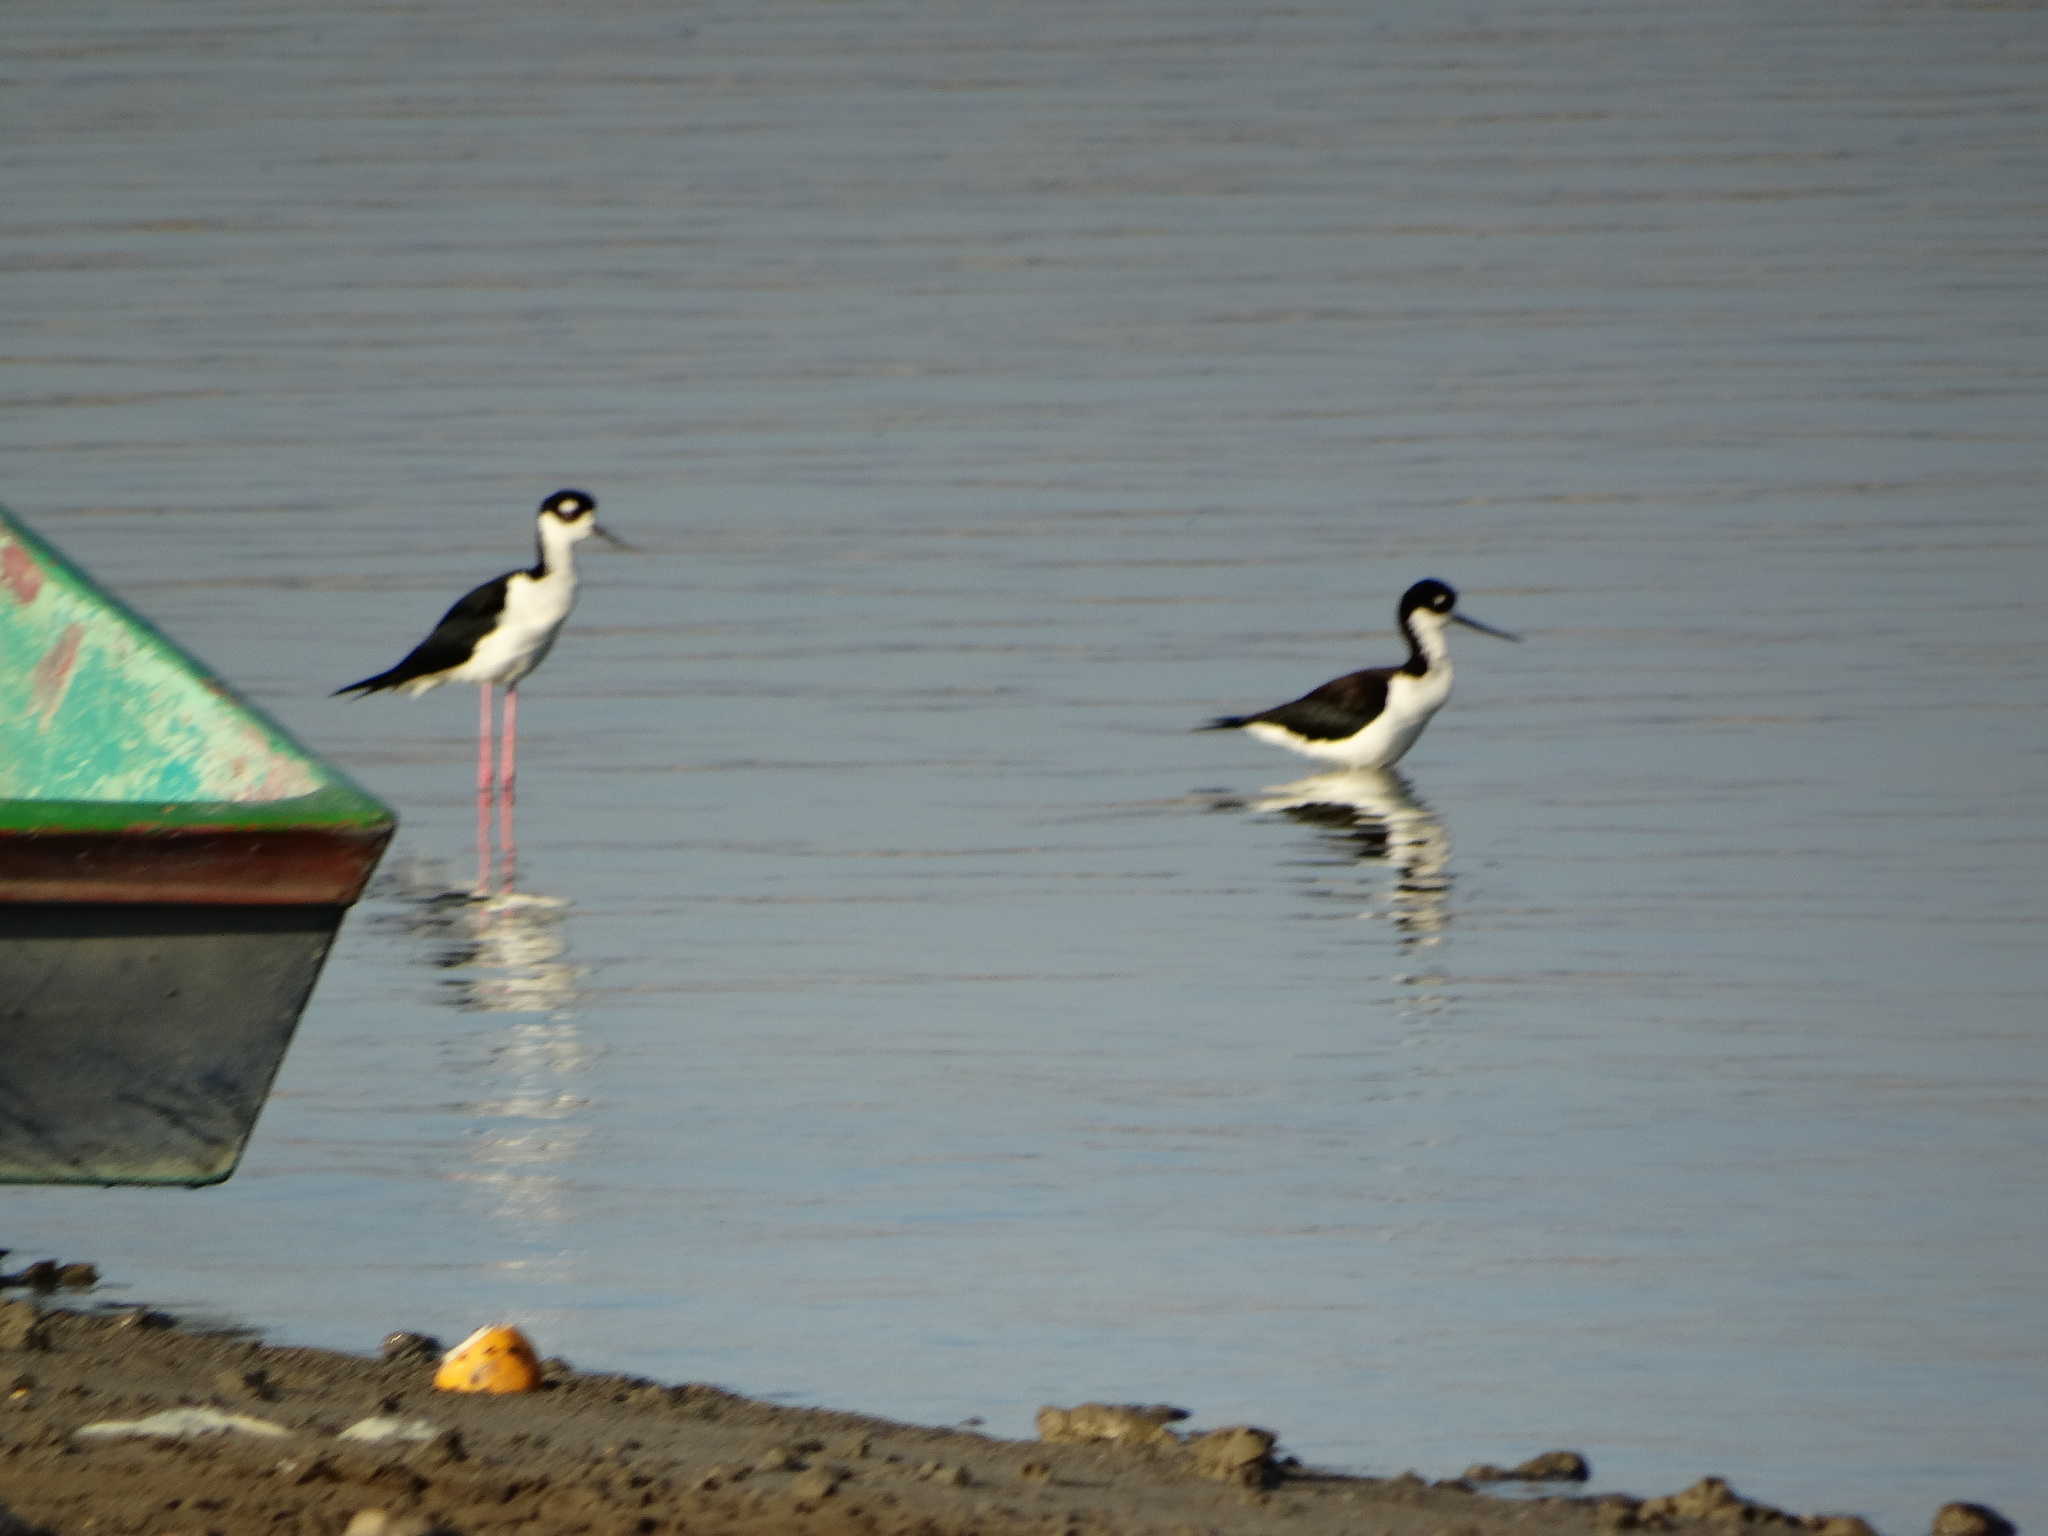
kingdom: Animalia
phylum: Chordata
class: Aves
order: Charadriiformes
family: Recurvirostridae
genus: Himantopus
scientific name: Himantopus mexicanus
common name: Black-necked stilt
